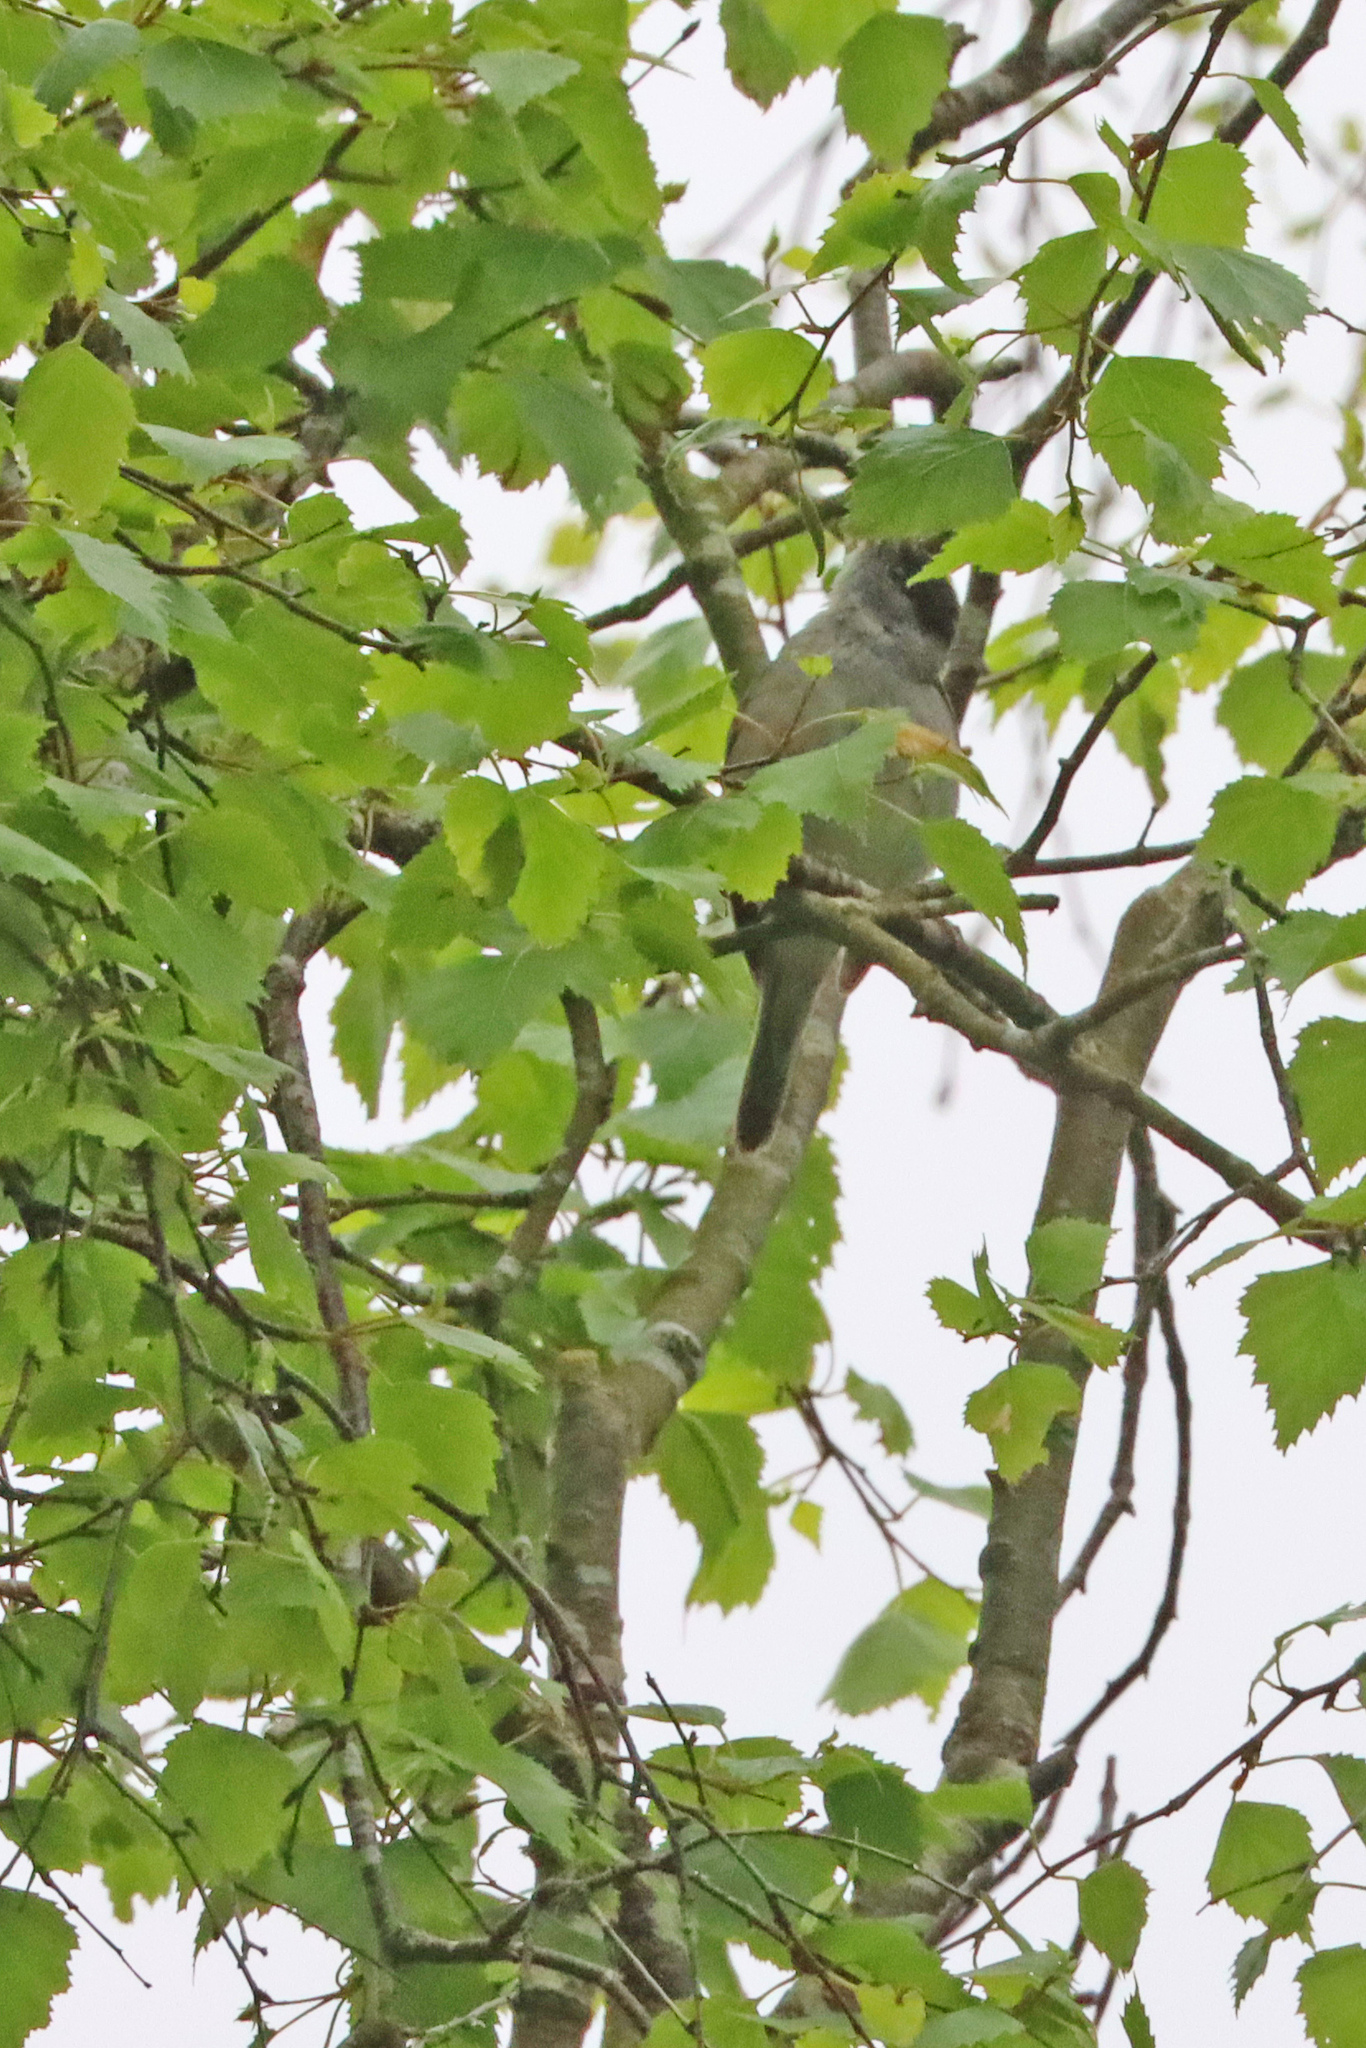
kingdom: Animalia
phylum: Chordata
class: Aves
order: Passeriformes
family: Sylviidae
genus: Sylvia
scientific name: Sylvia atricapilla
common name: Eurasian blackcap
